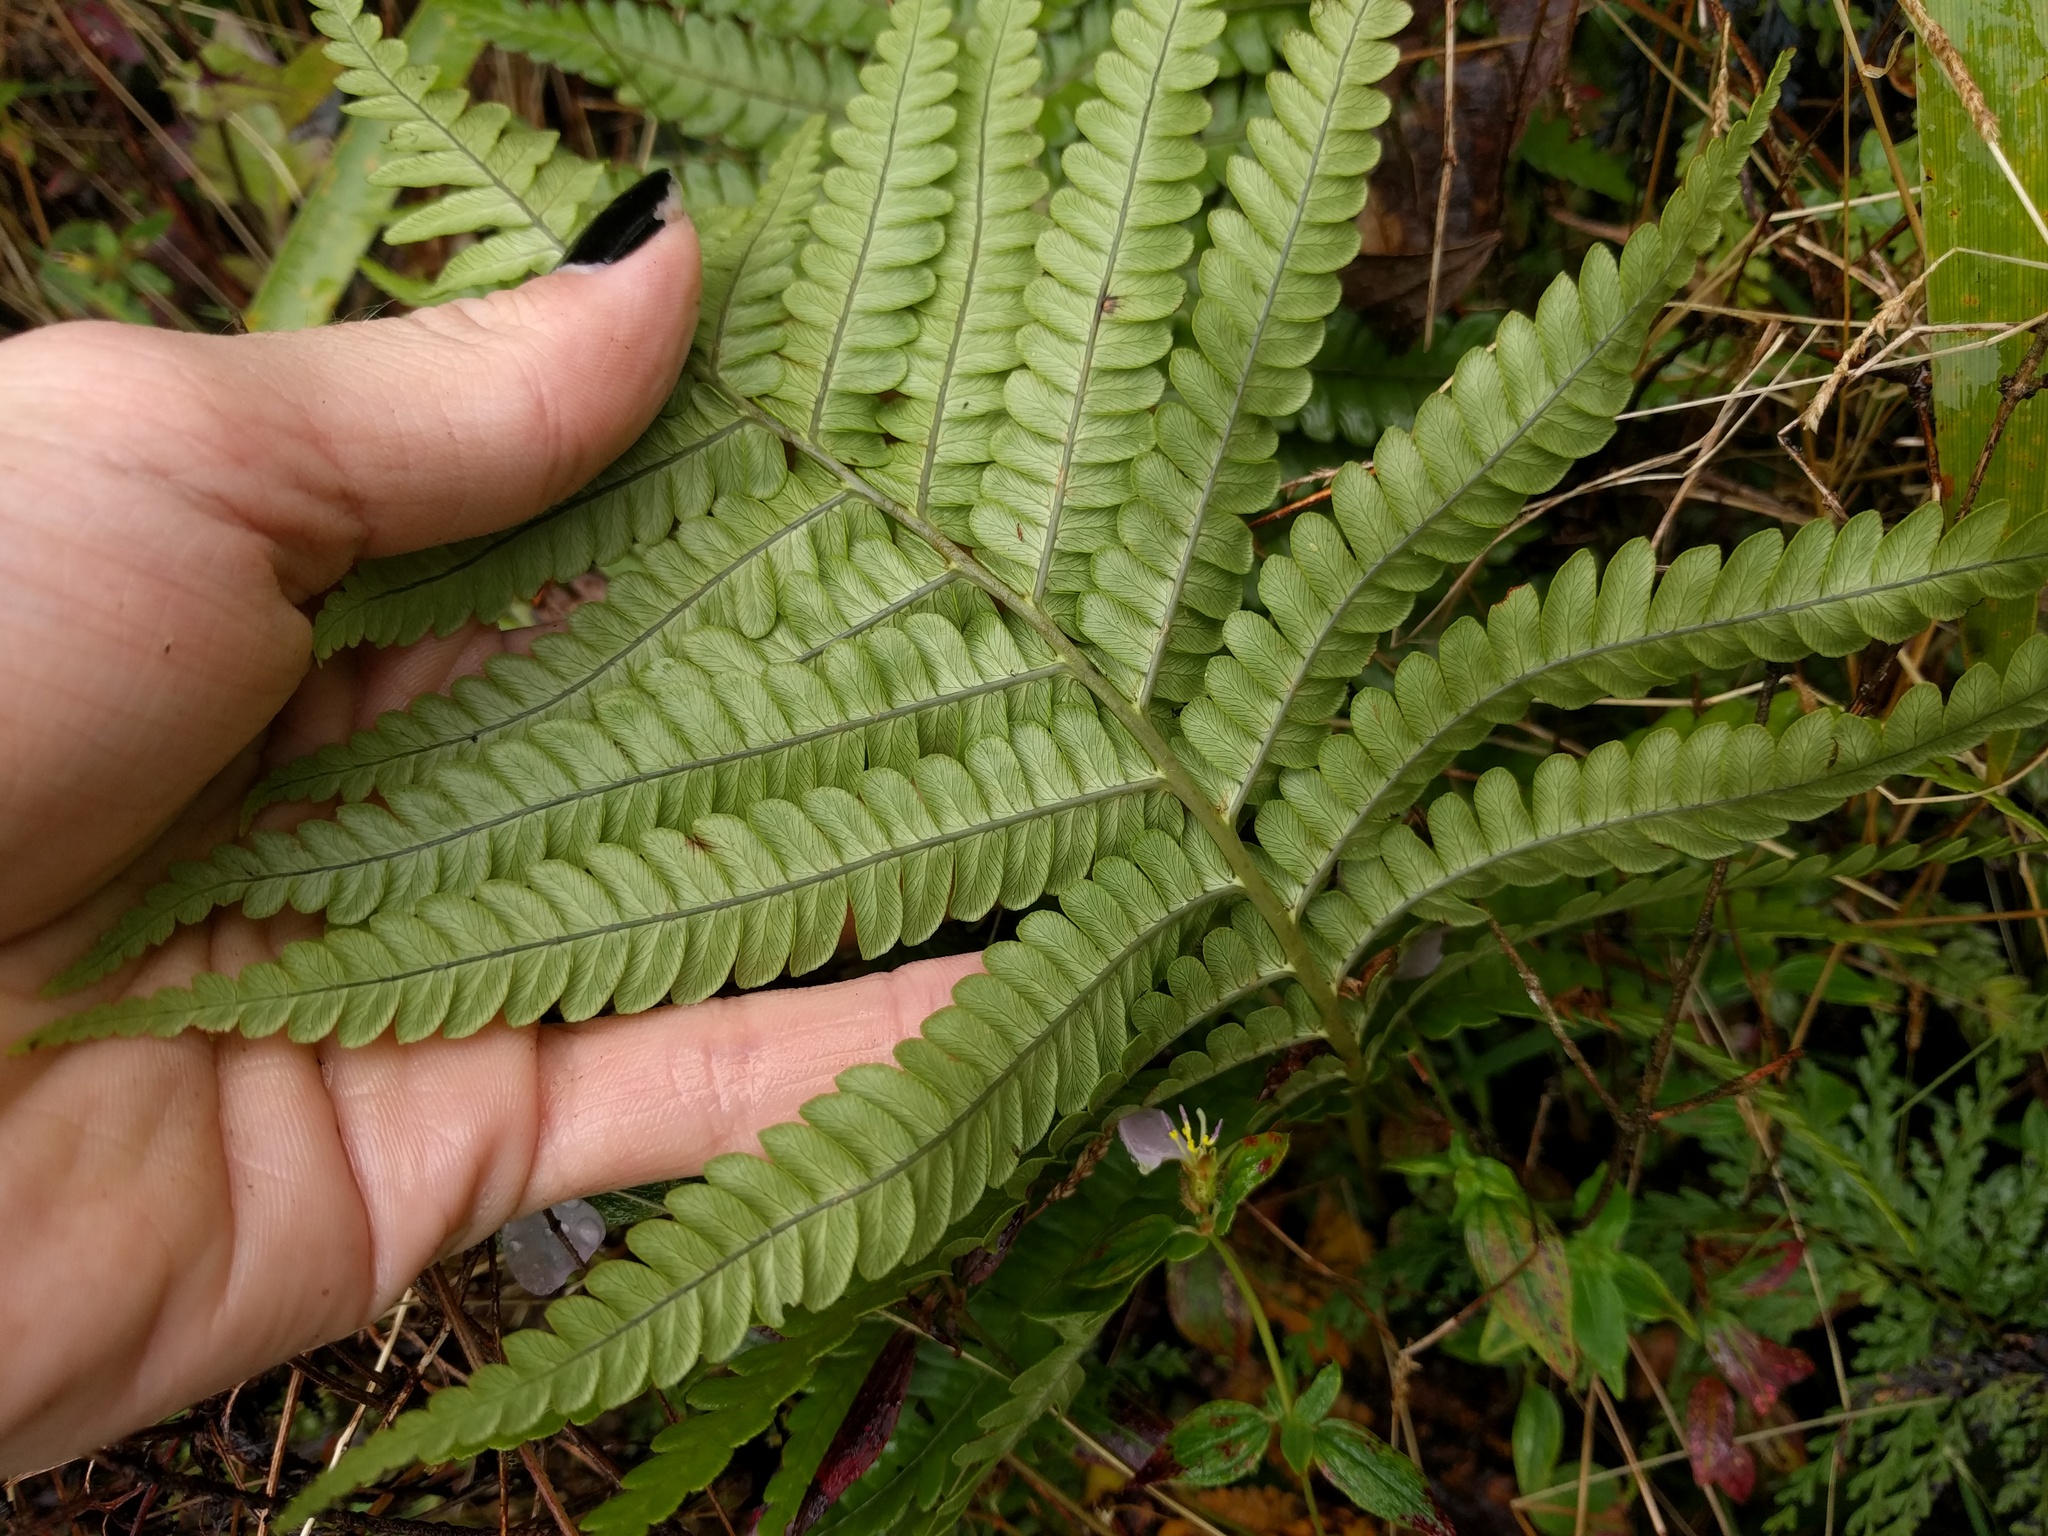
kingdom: Plantae
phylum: Tracheophyta
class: Polypodiopsida
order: Polypodiales
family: Blechnaceae
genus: Sadleria
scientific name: Sadleria pallida
